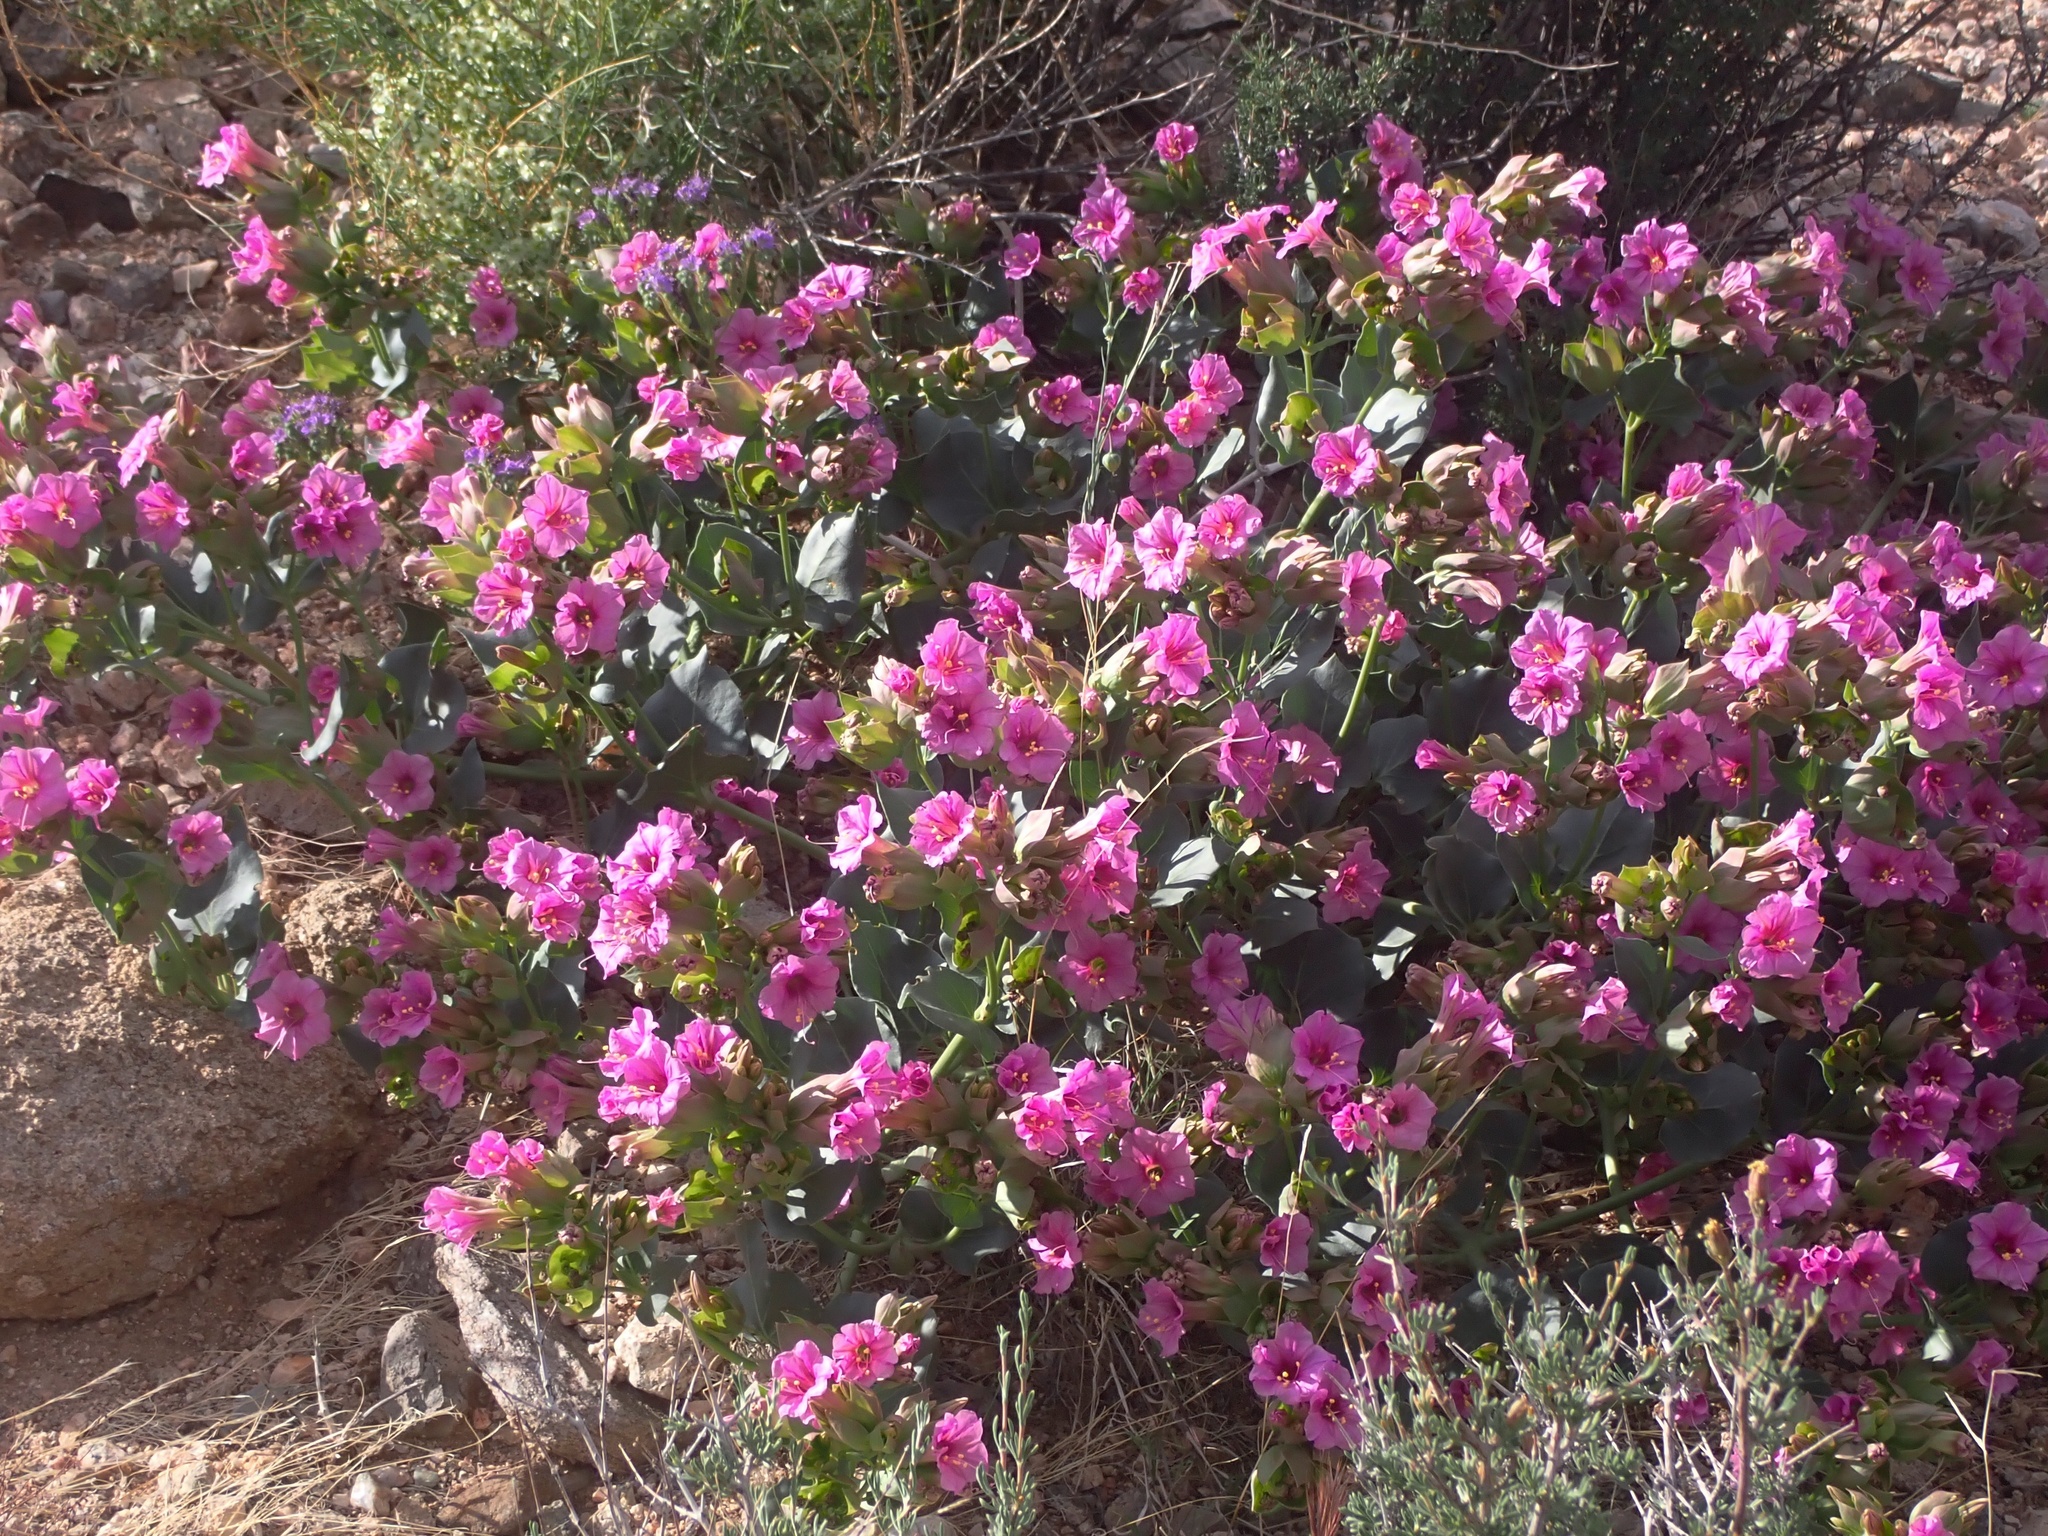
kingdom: Plantae
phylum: Tracheophyta
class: Magnoliopsida
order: Caryophyllales
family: Nyctaginaceae
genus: Mirabilis
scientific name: Mirabilis multiflora
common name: Froebel's four-o'clock
